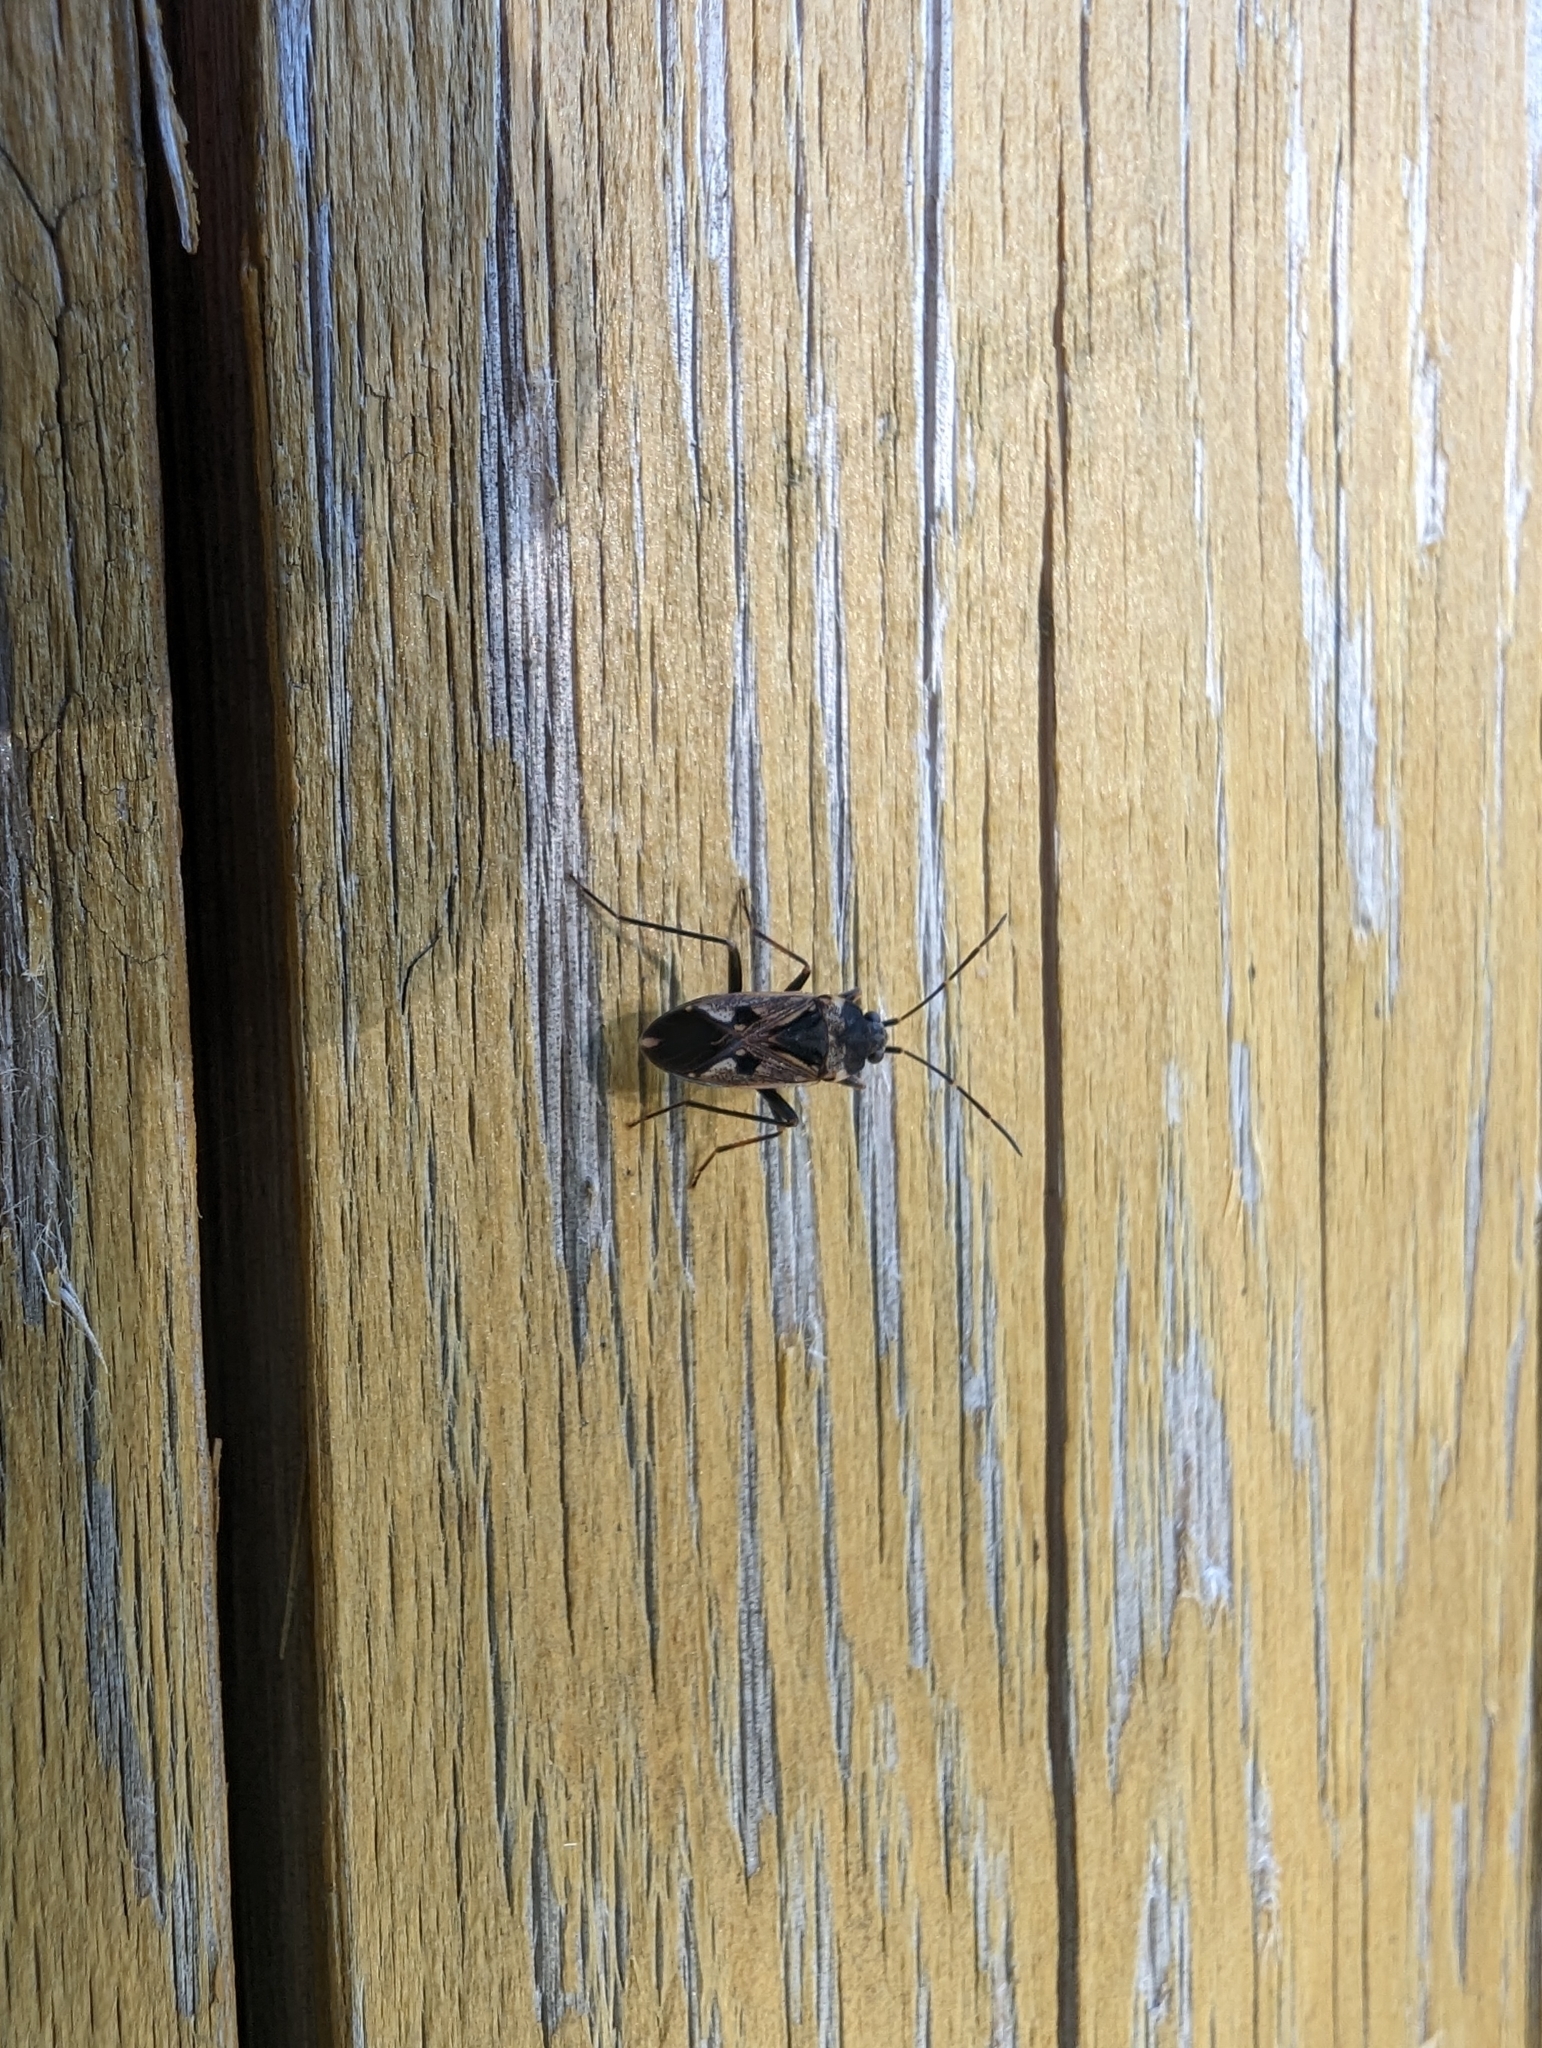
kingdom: Animalia
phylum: Arthropoda
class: Insecta
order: Hemiptera
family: Rhyparochromidae
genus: Rhyparochromus
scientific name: Rhyparochromus vulgaris
